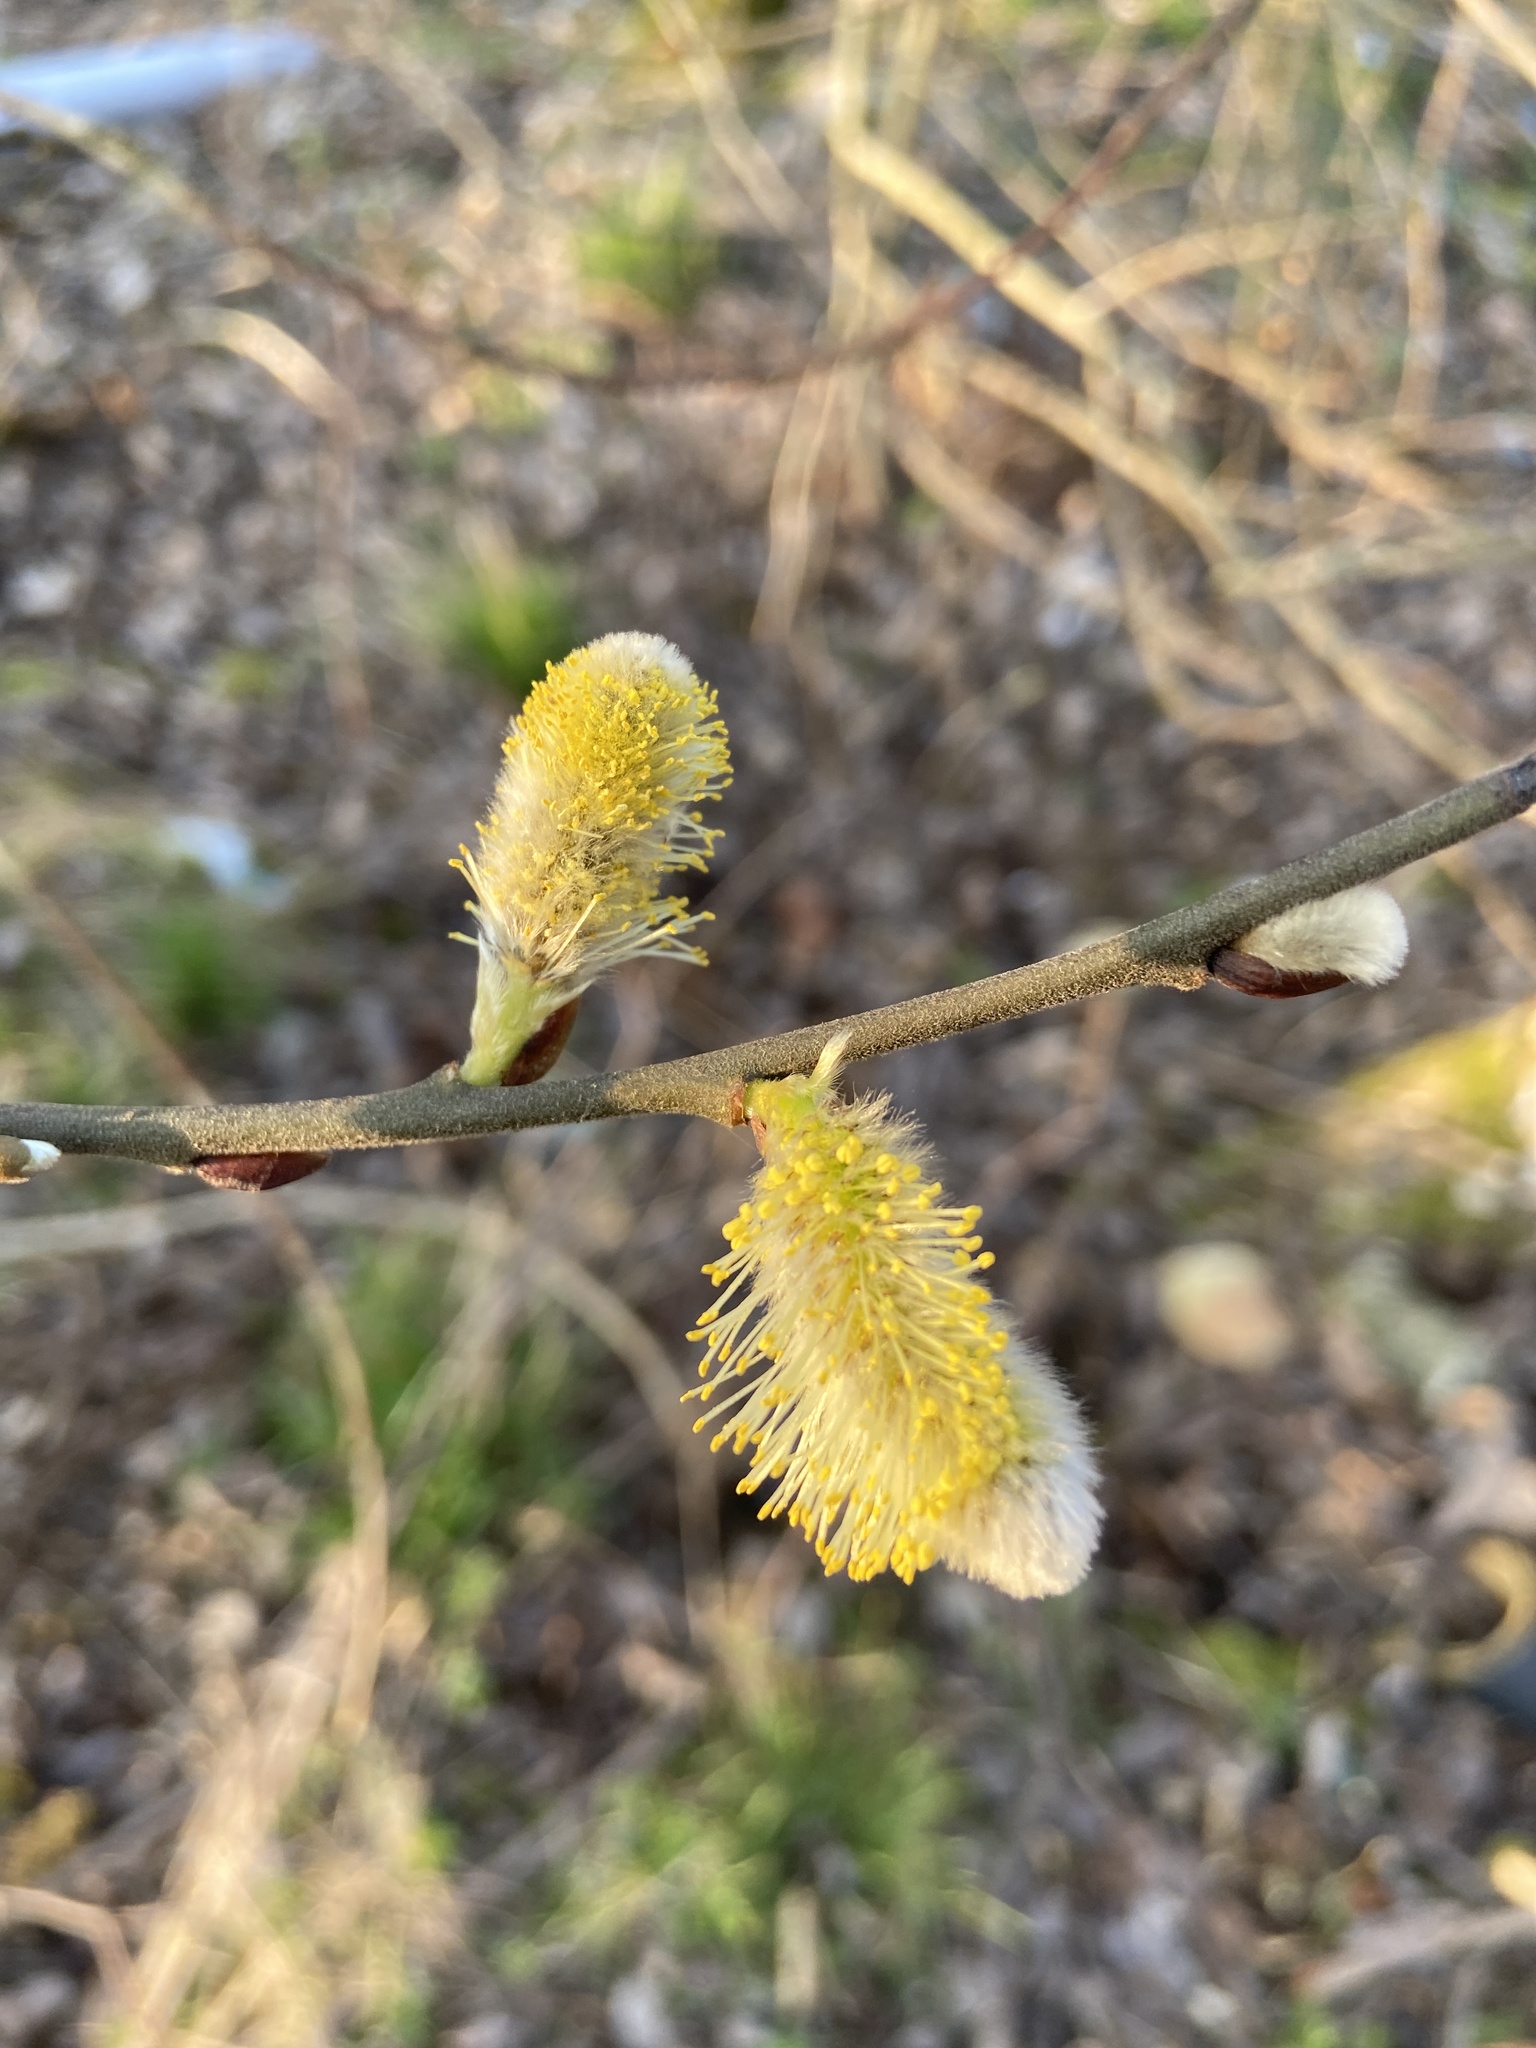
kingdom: Plantae
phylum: Tracheophyta
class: Magnoliopsida
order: Malpighiales
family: Salicaceae
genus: Salix
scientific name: Salix caprea
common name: Goat willow
